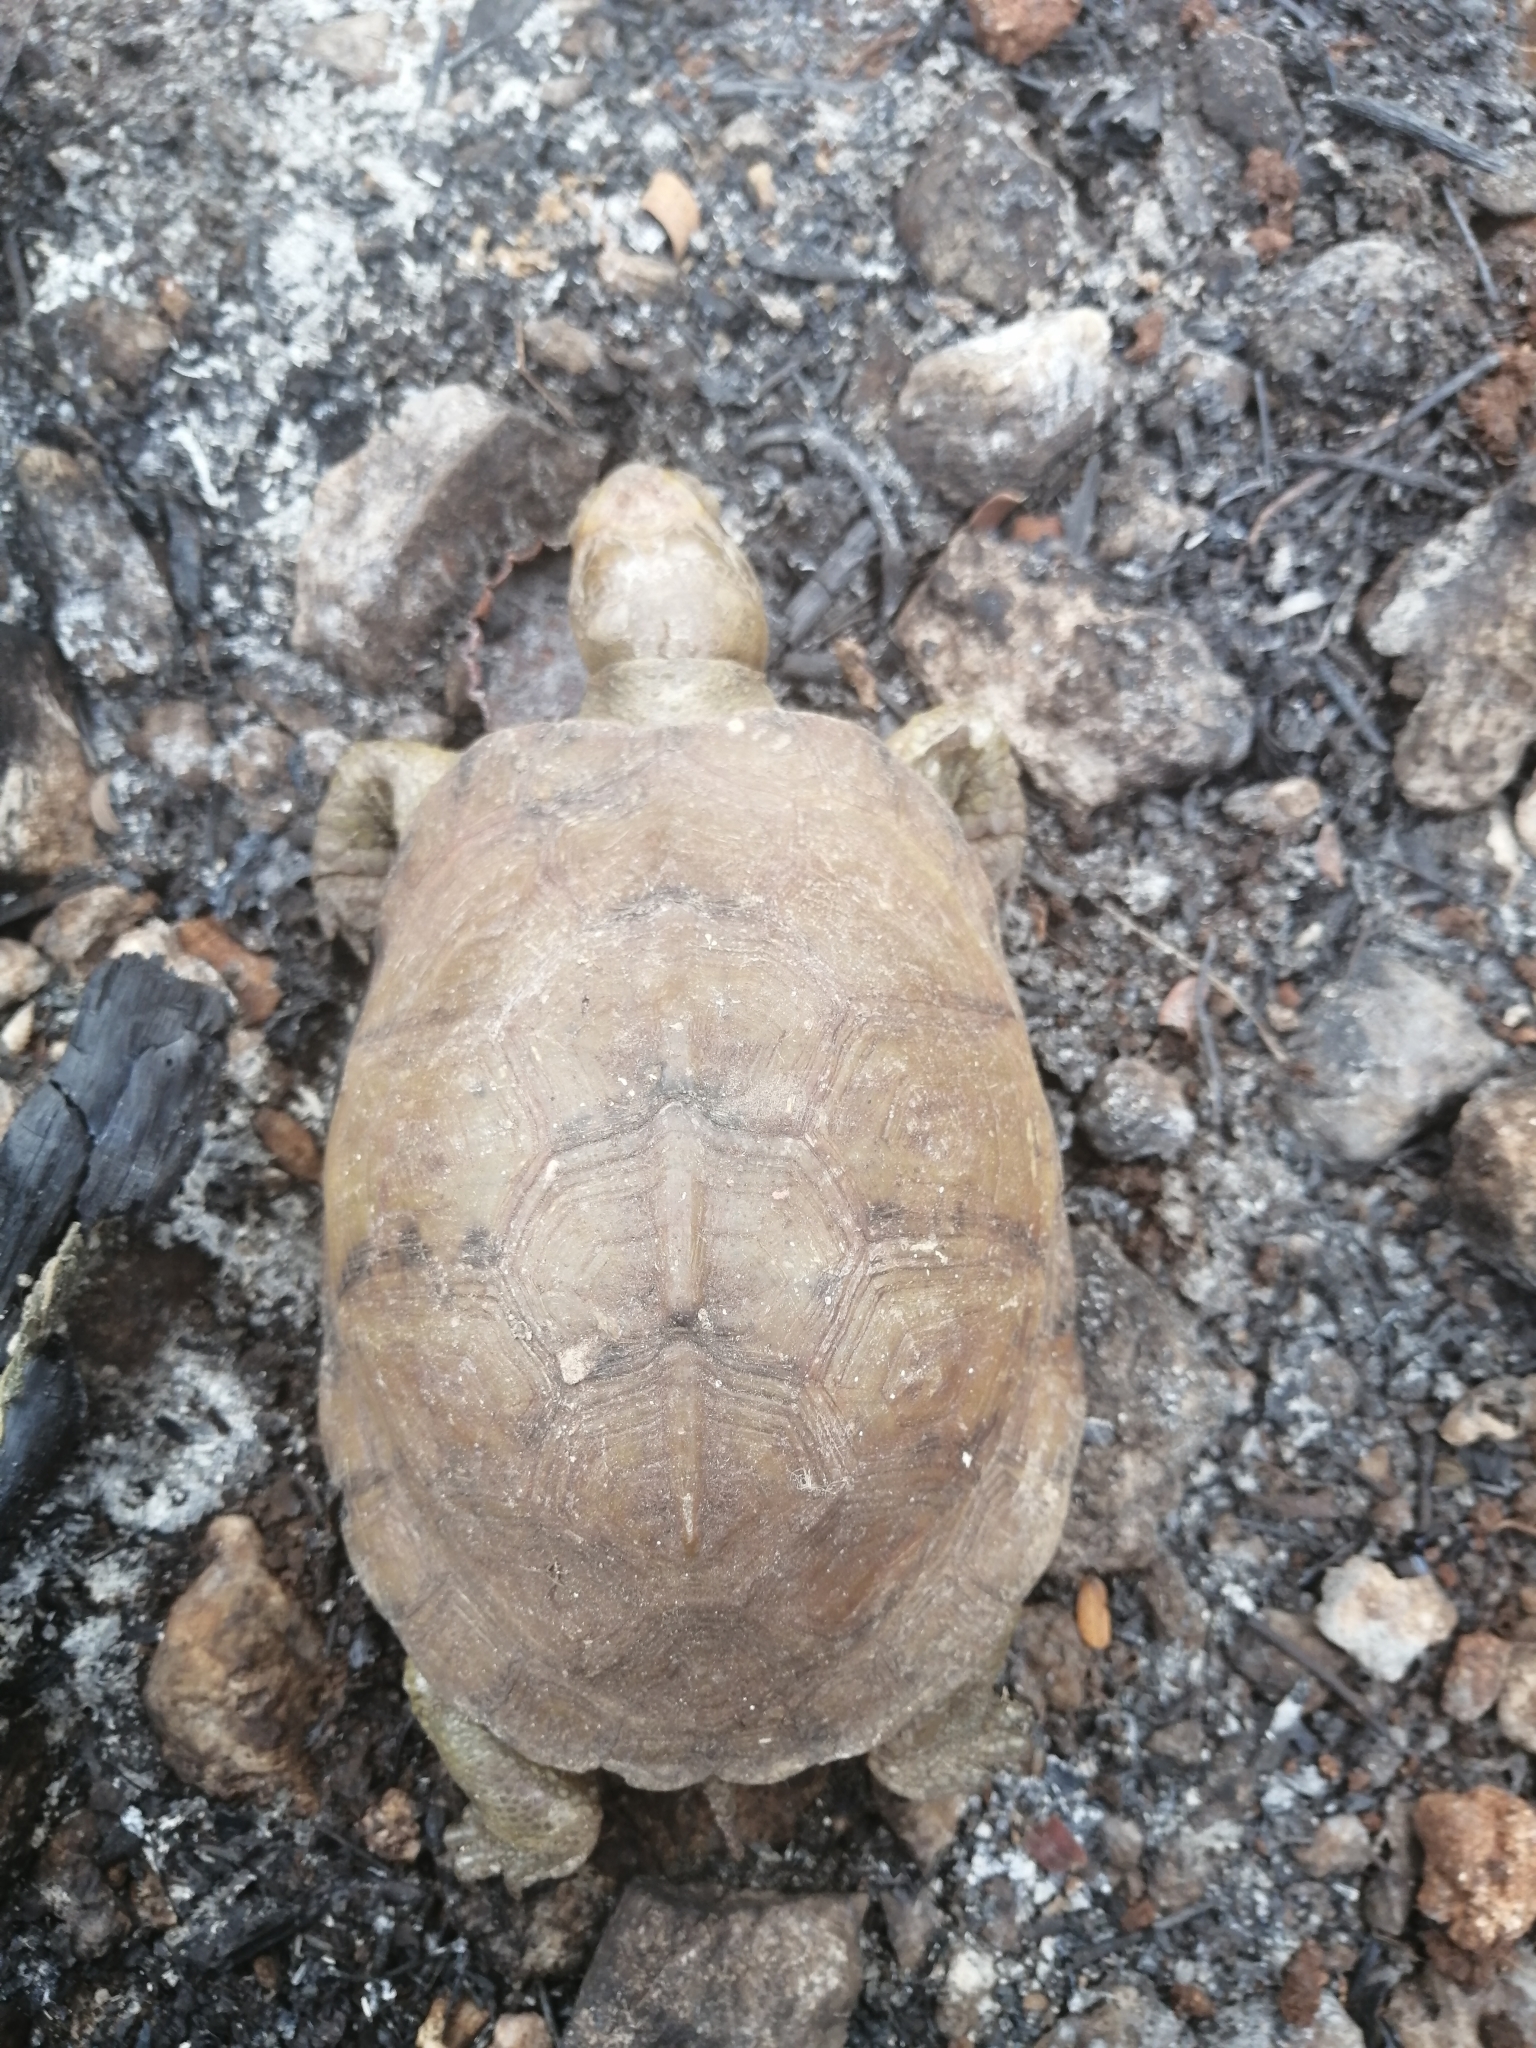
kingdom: Animalia
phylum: Chordata
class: Testudines
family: Emydidae
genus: Terrapene
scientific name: Terrapene yucatana
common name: Yucatan box turtle
